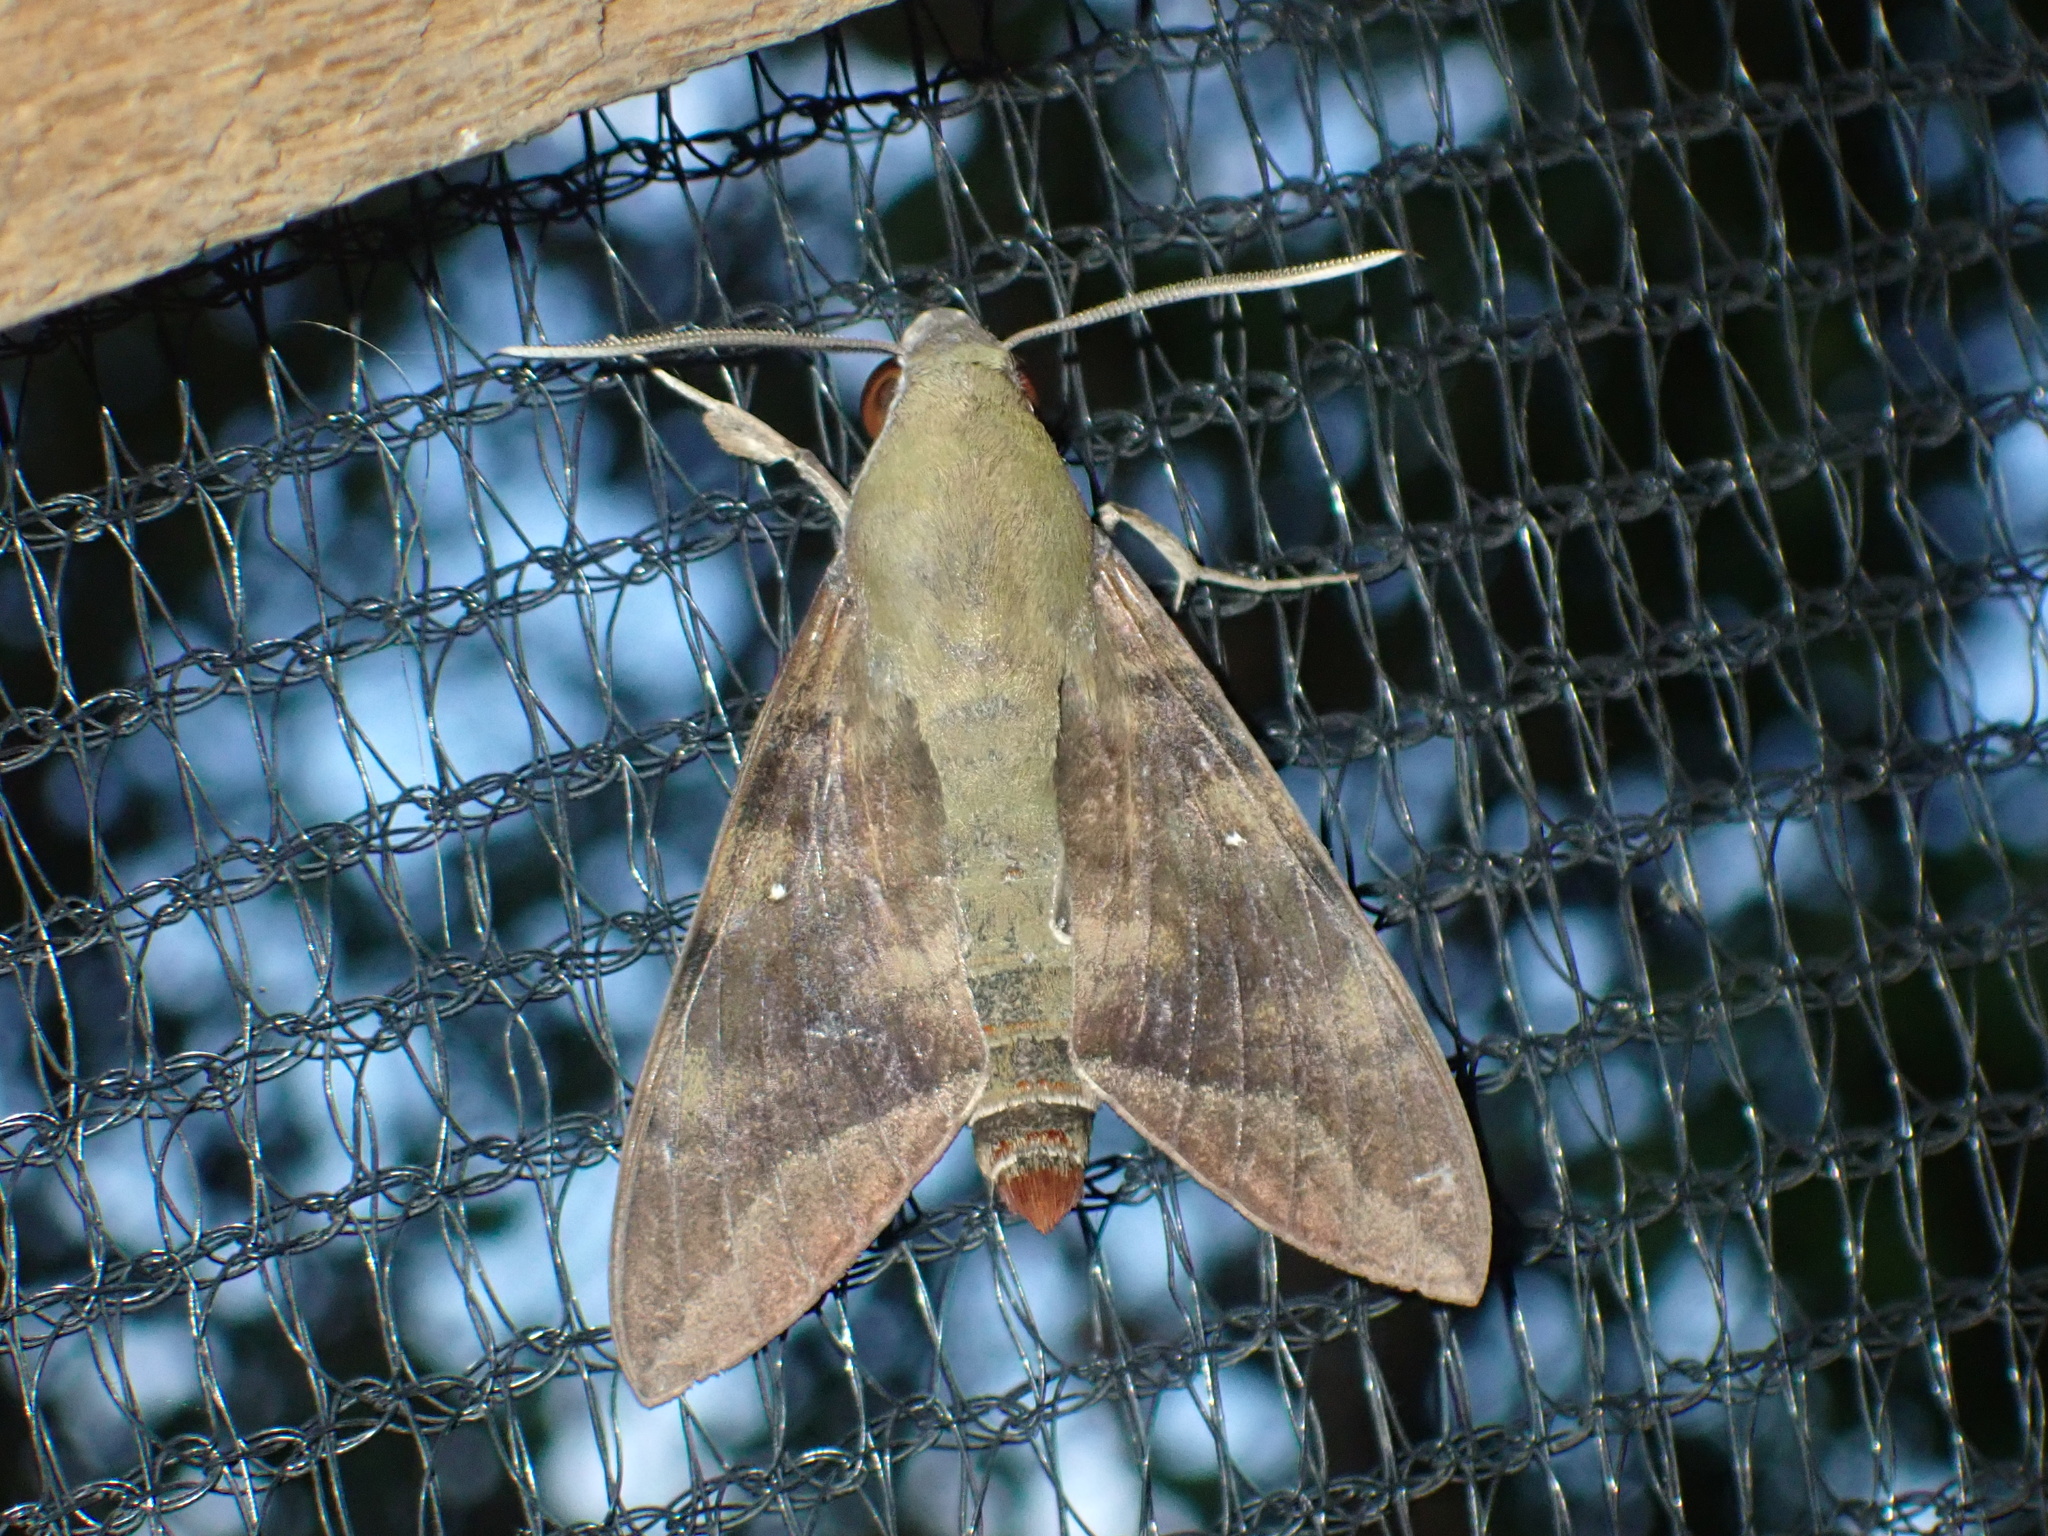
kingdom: Animalia
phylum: Arthropoda
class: Insecta
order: Lepidoptera
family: Sphingidae
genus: Nephele
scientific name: Nephele comma
